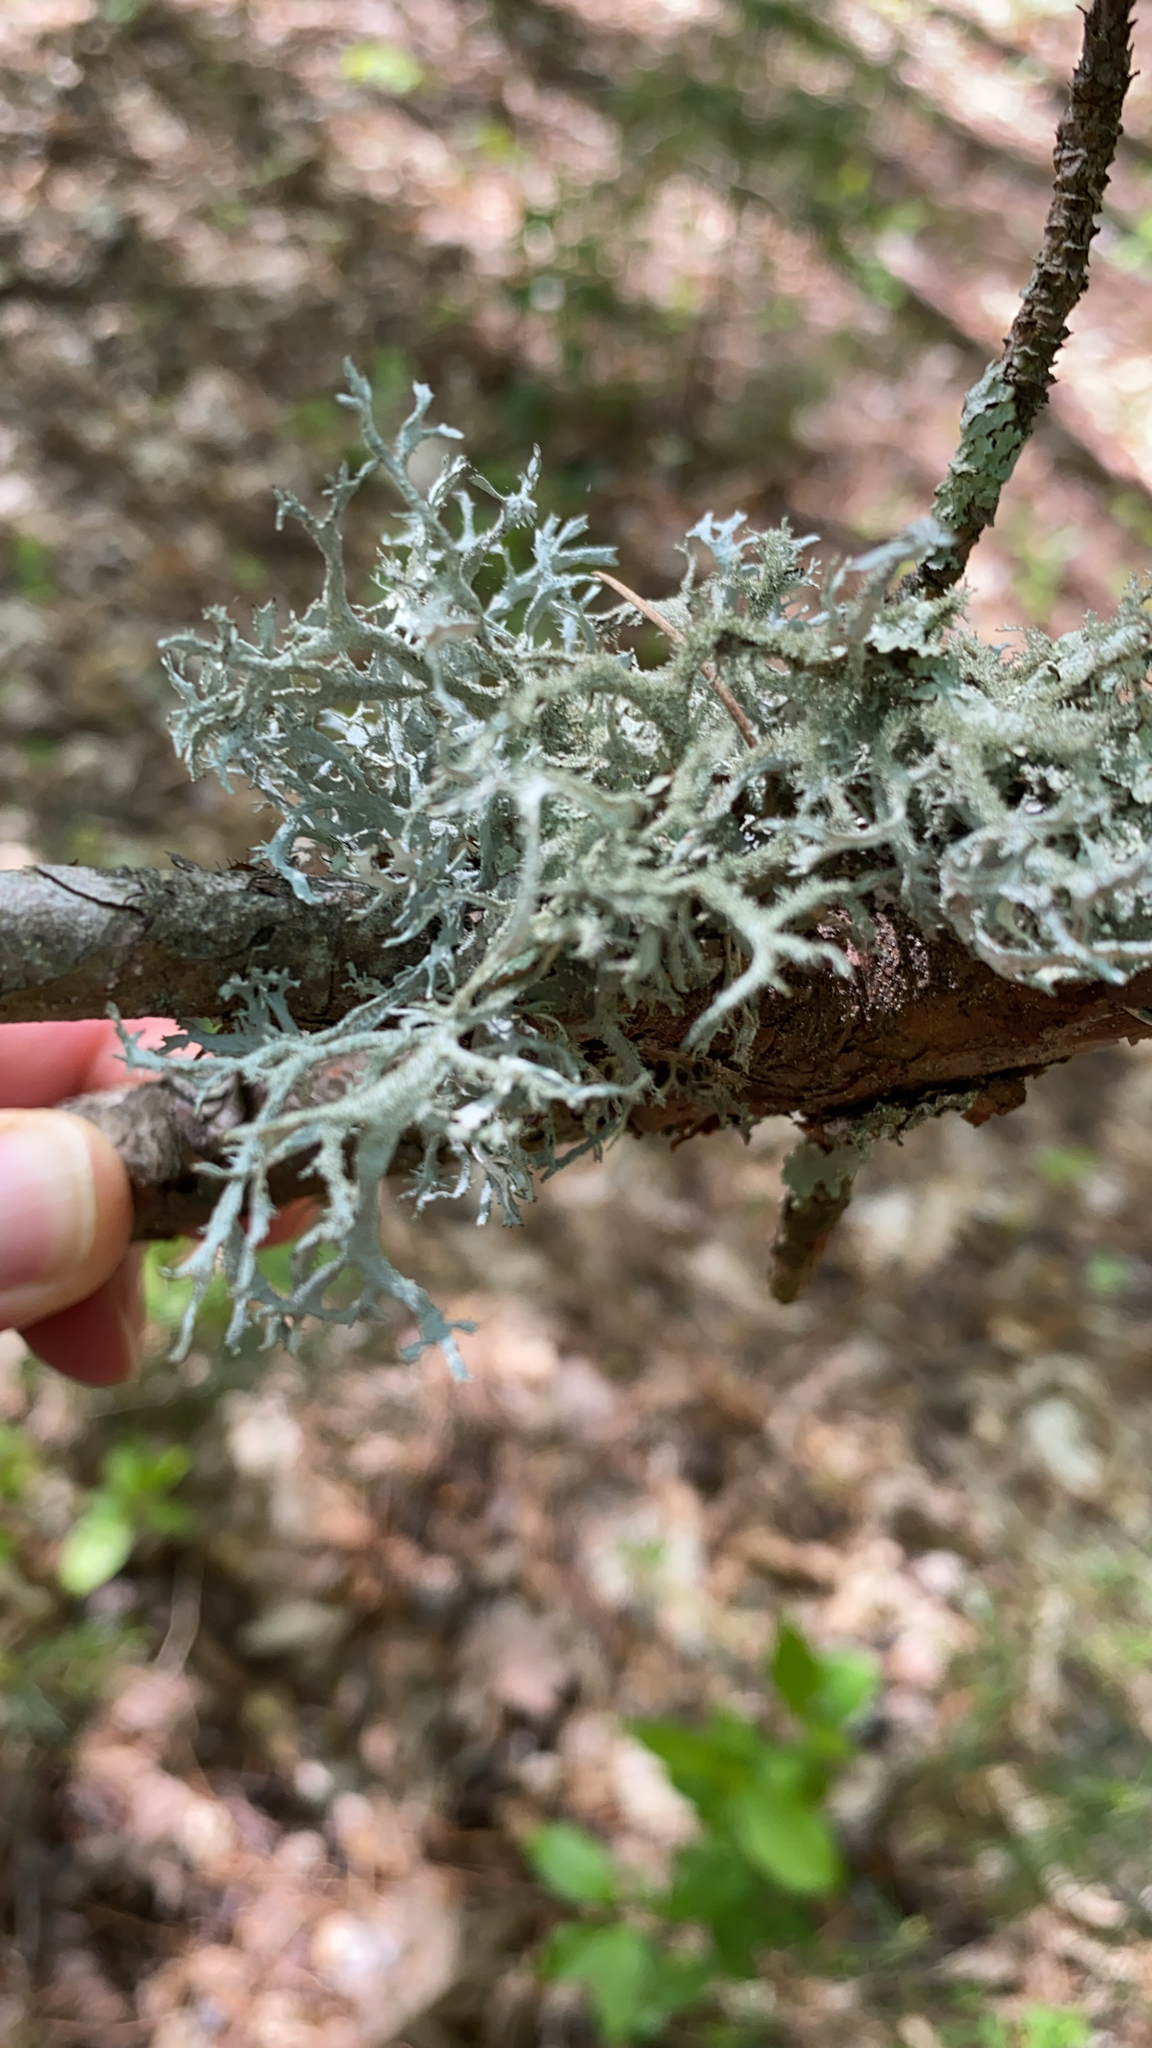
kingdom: Fungi
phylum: Ascomycota
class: Lecanoromycetes
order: Lecanorales
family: Parmeliaceae
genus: Pseudevernia
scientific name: Pseudevernia consocians
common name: Common antler lichen
